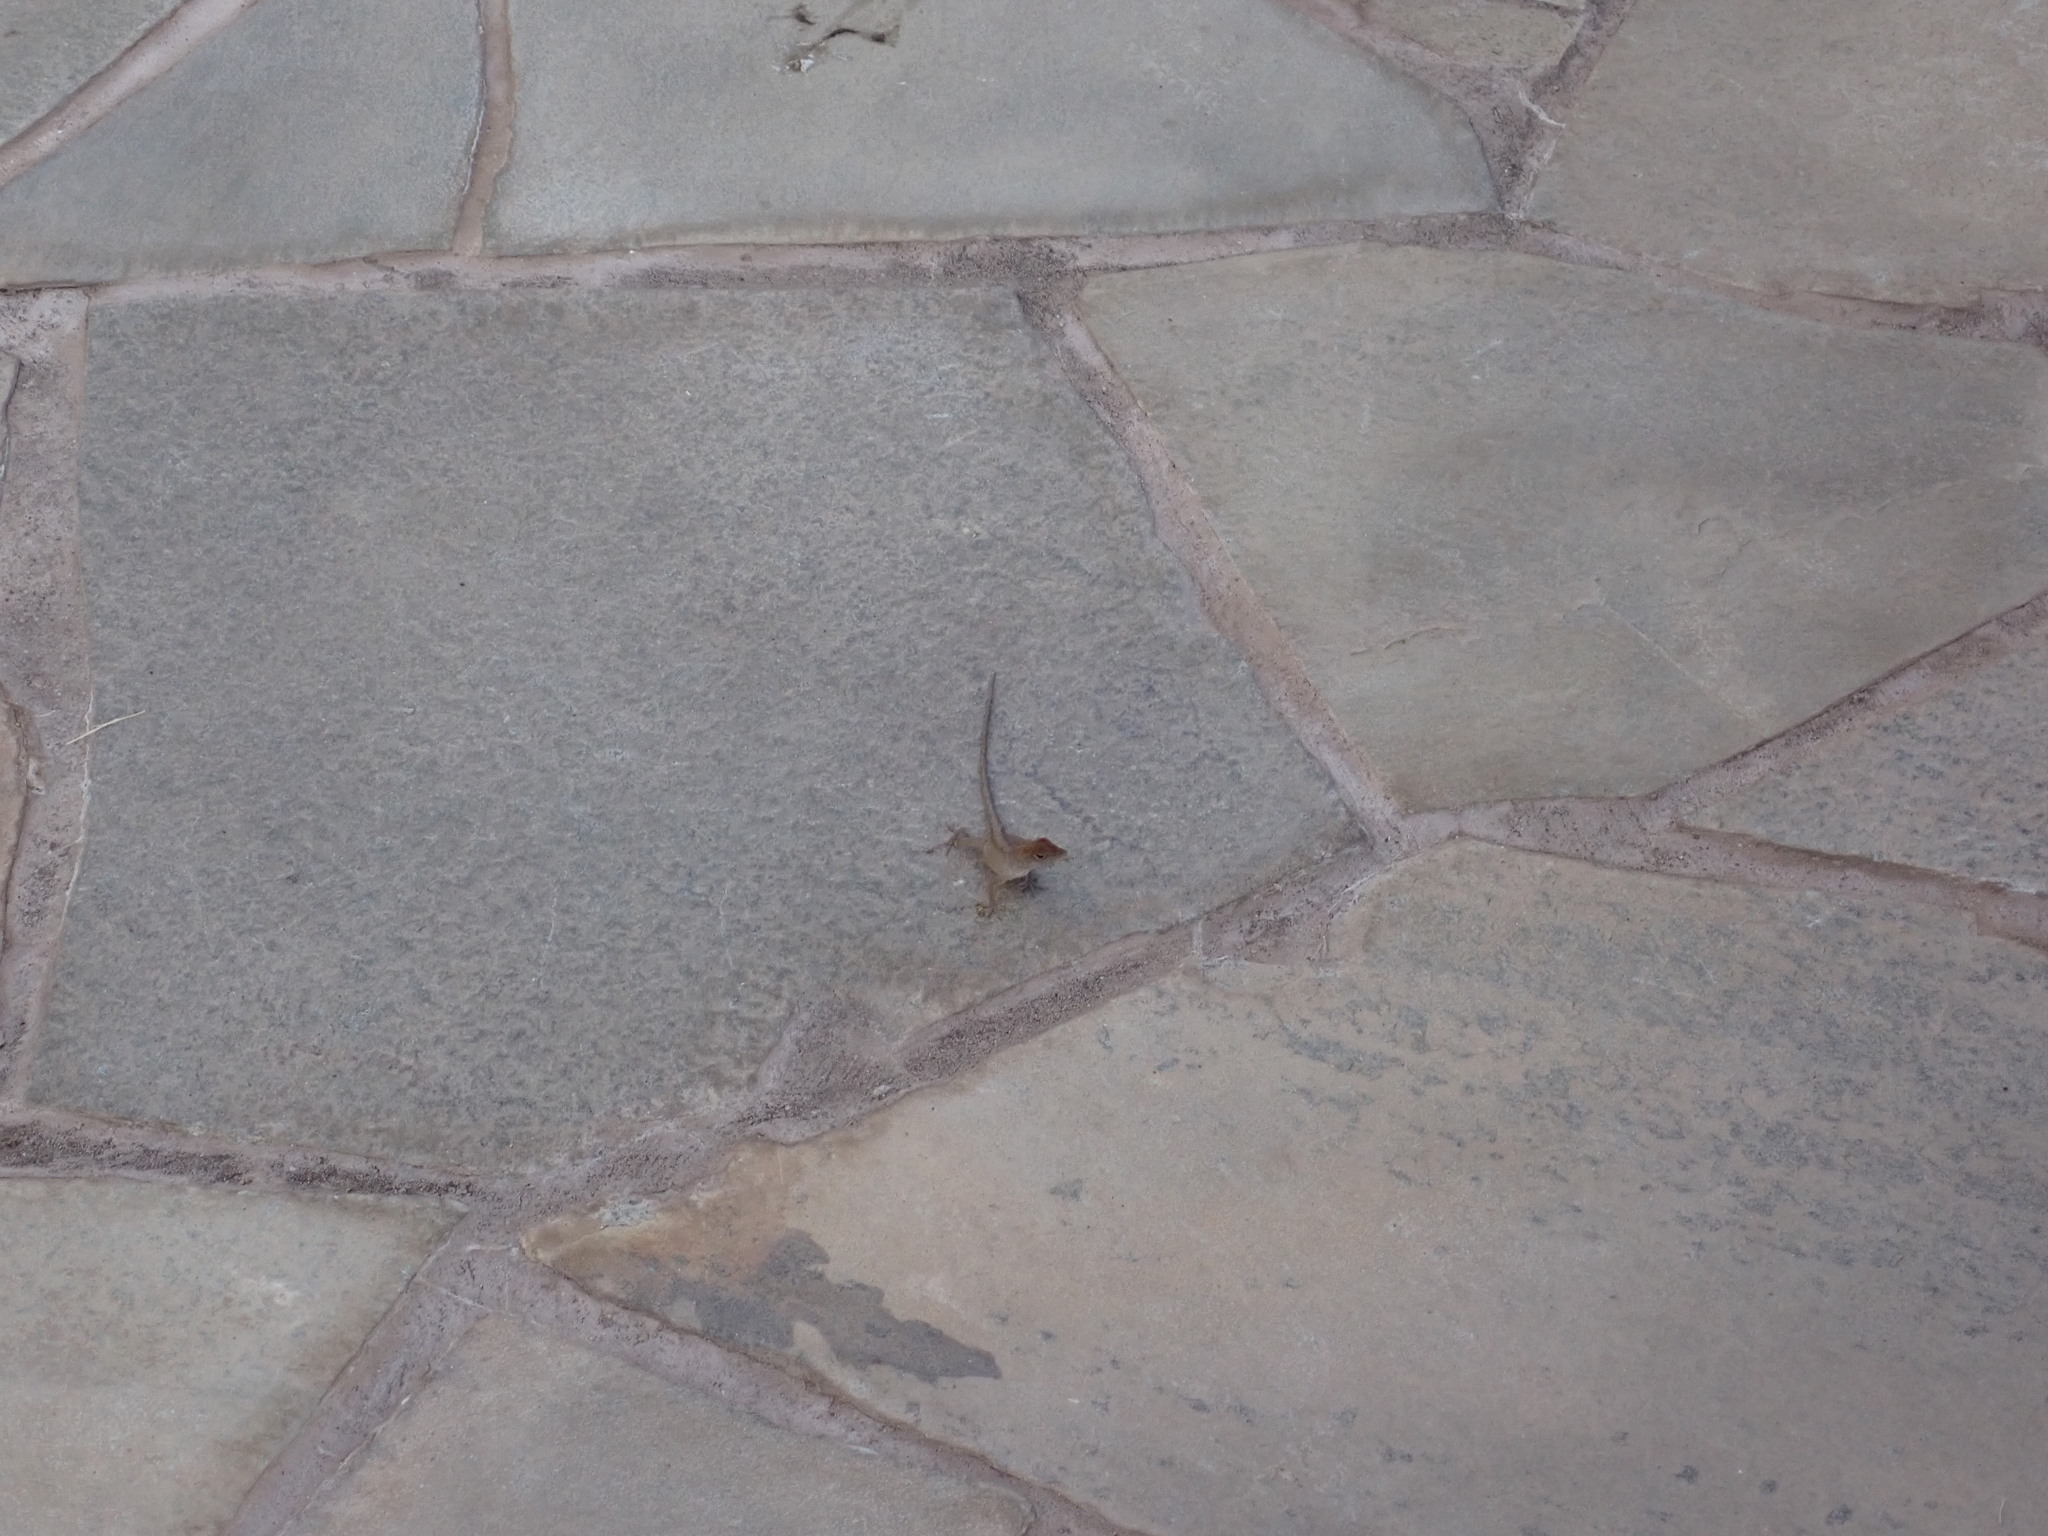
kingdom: Animalia
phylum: Chordata
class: Squamata
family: Dactyloidae
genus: Anolis
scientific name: Anolis sagrei
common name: Brown anole
